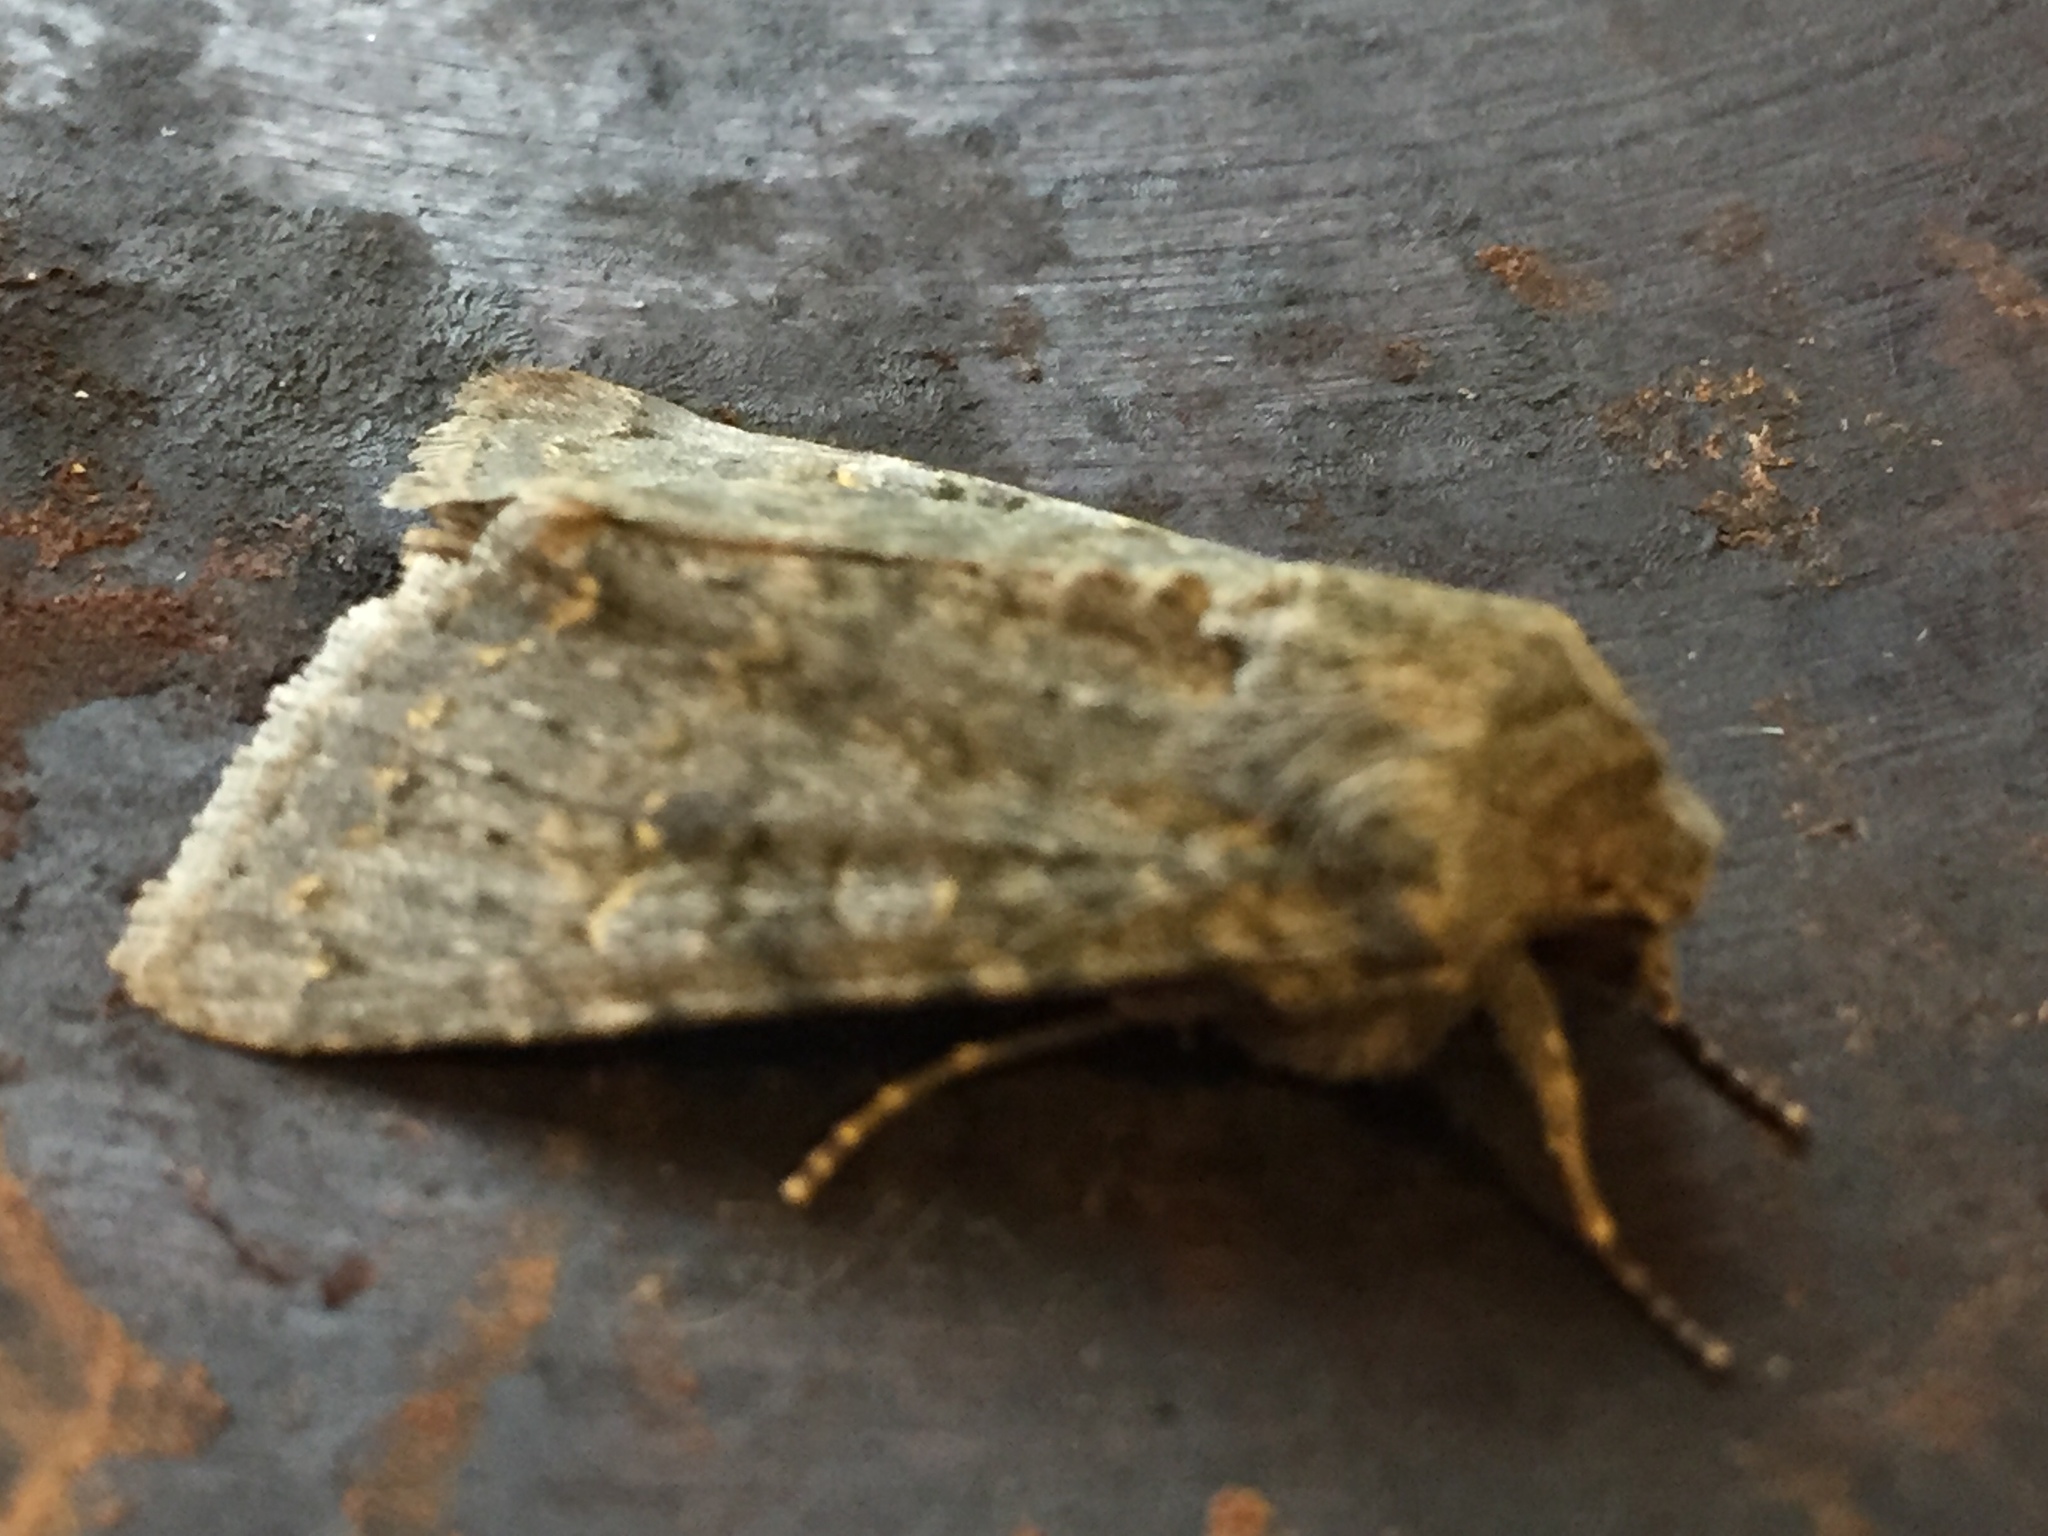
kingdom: Animalia
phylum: Arthropoda
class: Insecta
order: Lepidoptera
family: Noctuidae
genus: Ichneutica
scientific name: Ichneutica
